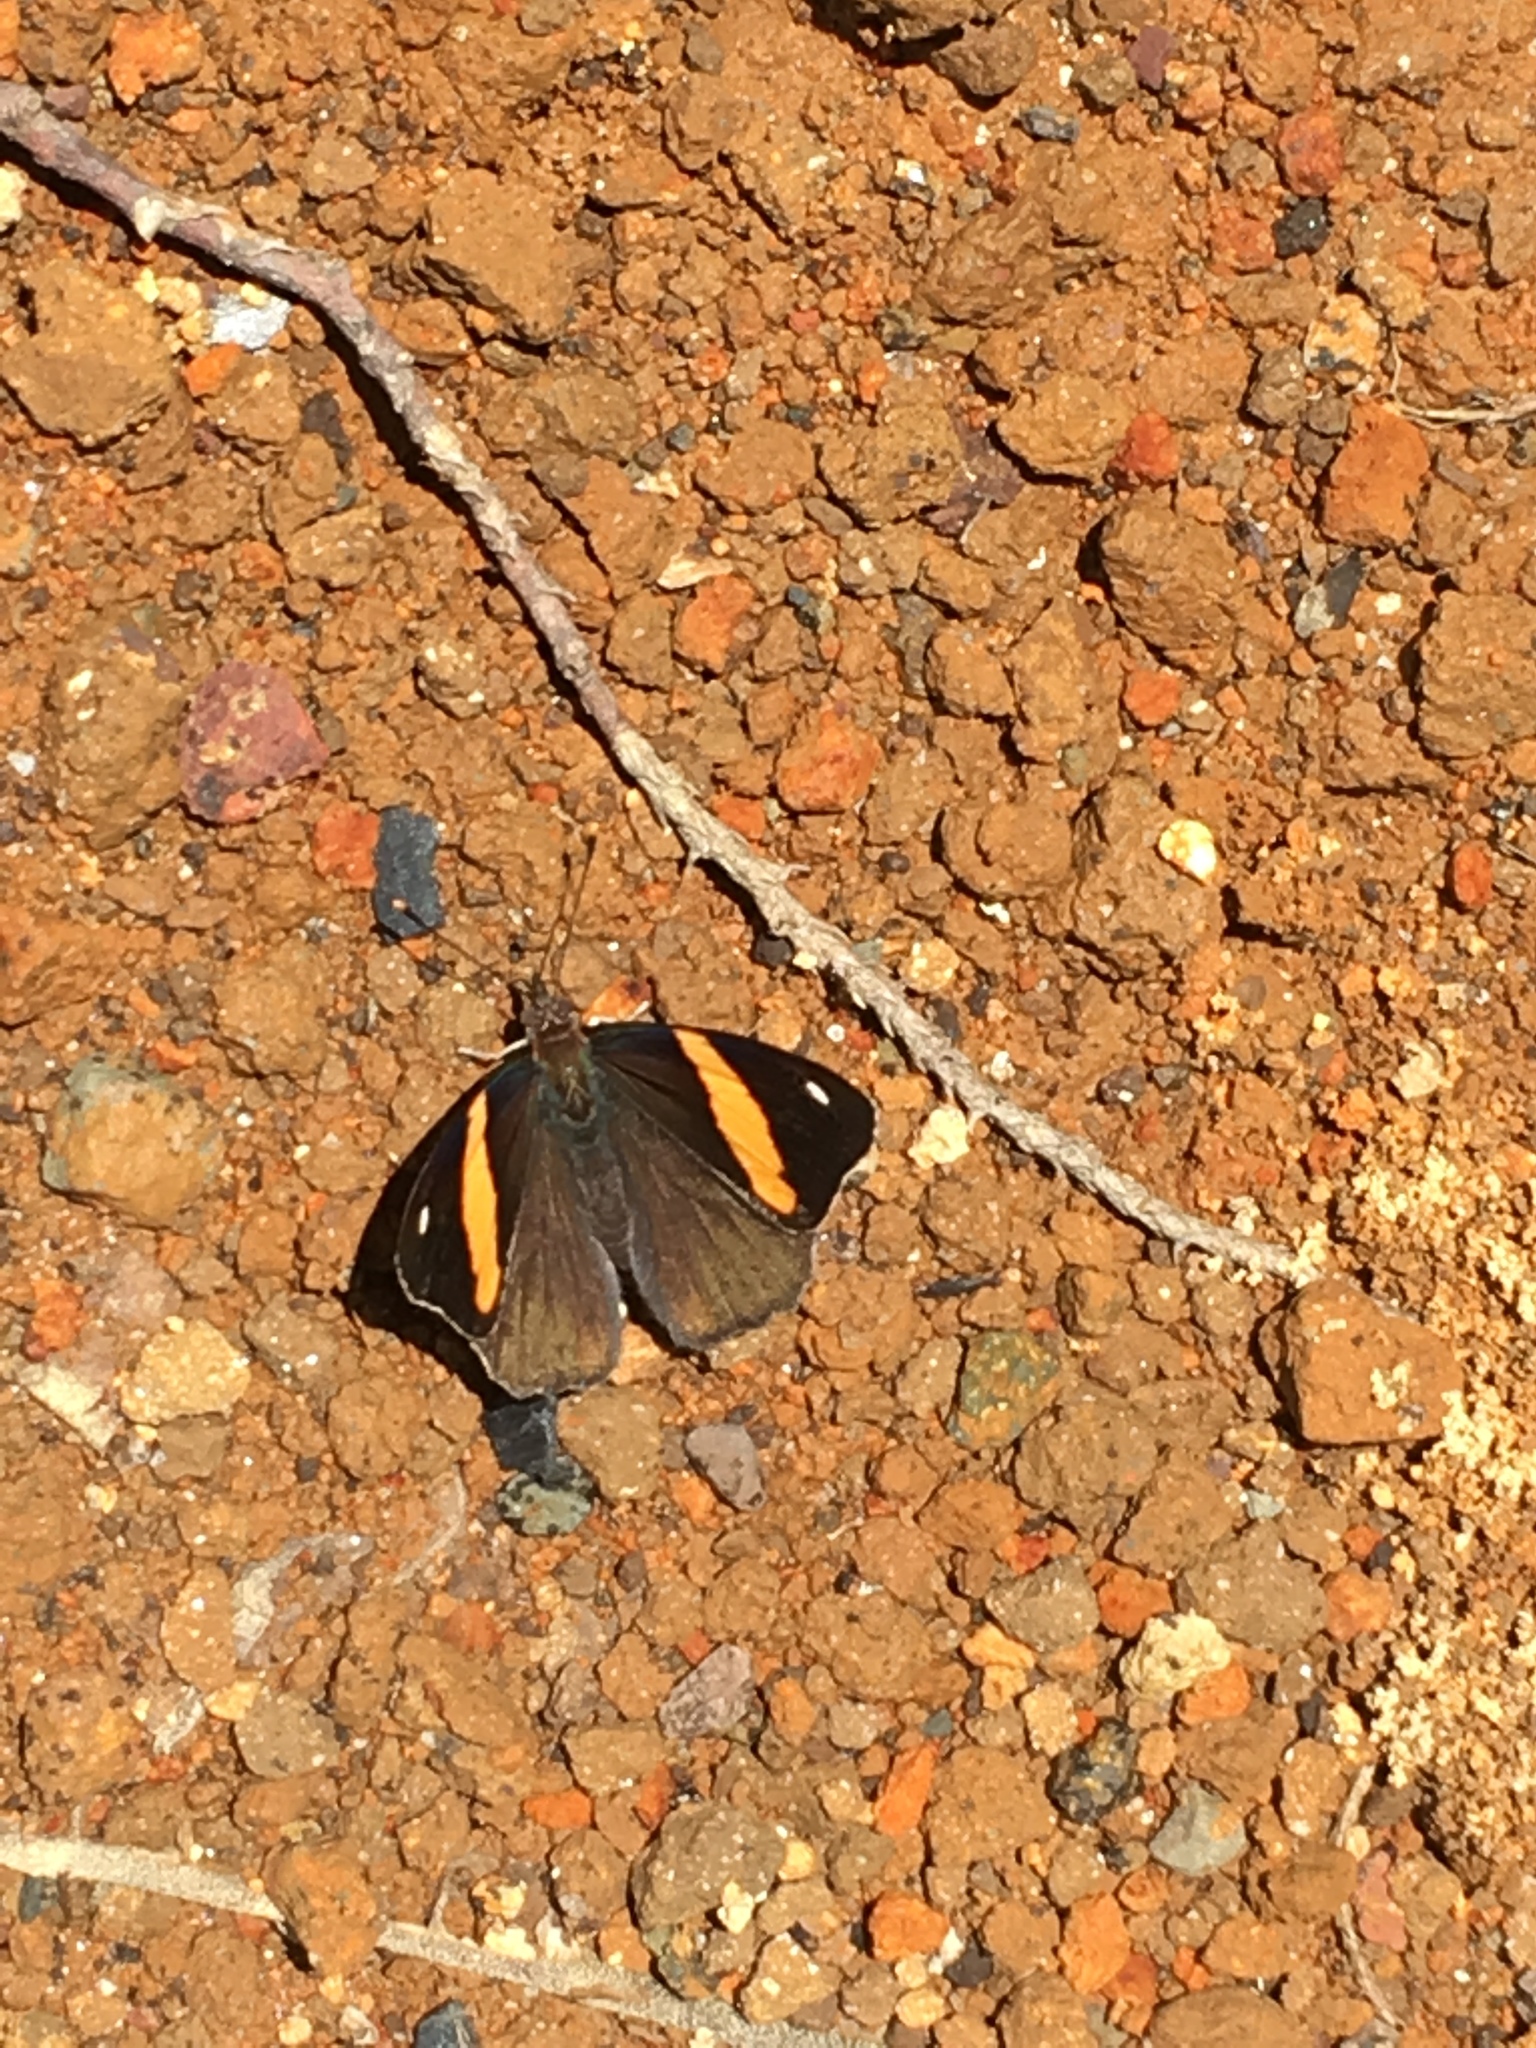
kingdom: Animalia
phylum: Arthropoda
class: Insecta
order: Lepidoptera
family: Nymphalidae
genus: Diaethria
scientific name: Diaethria pandama
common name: Orange-striped eighty-eight
